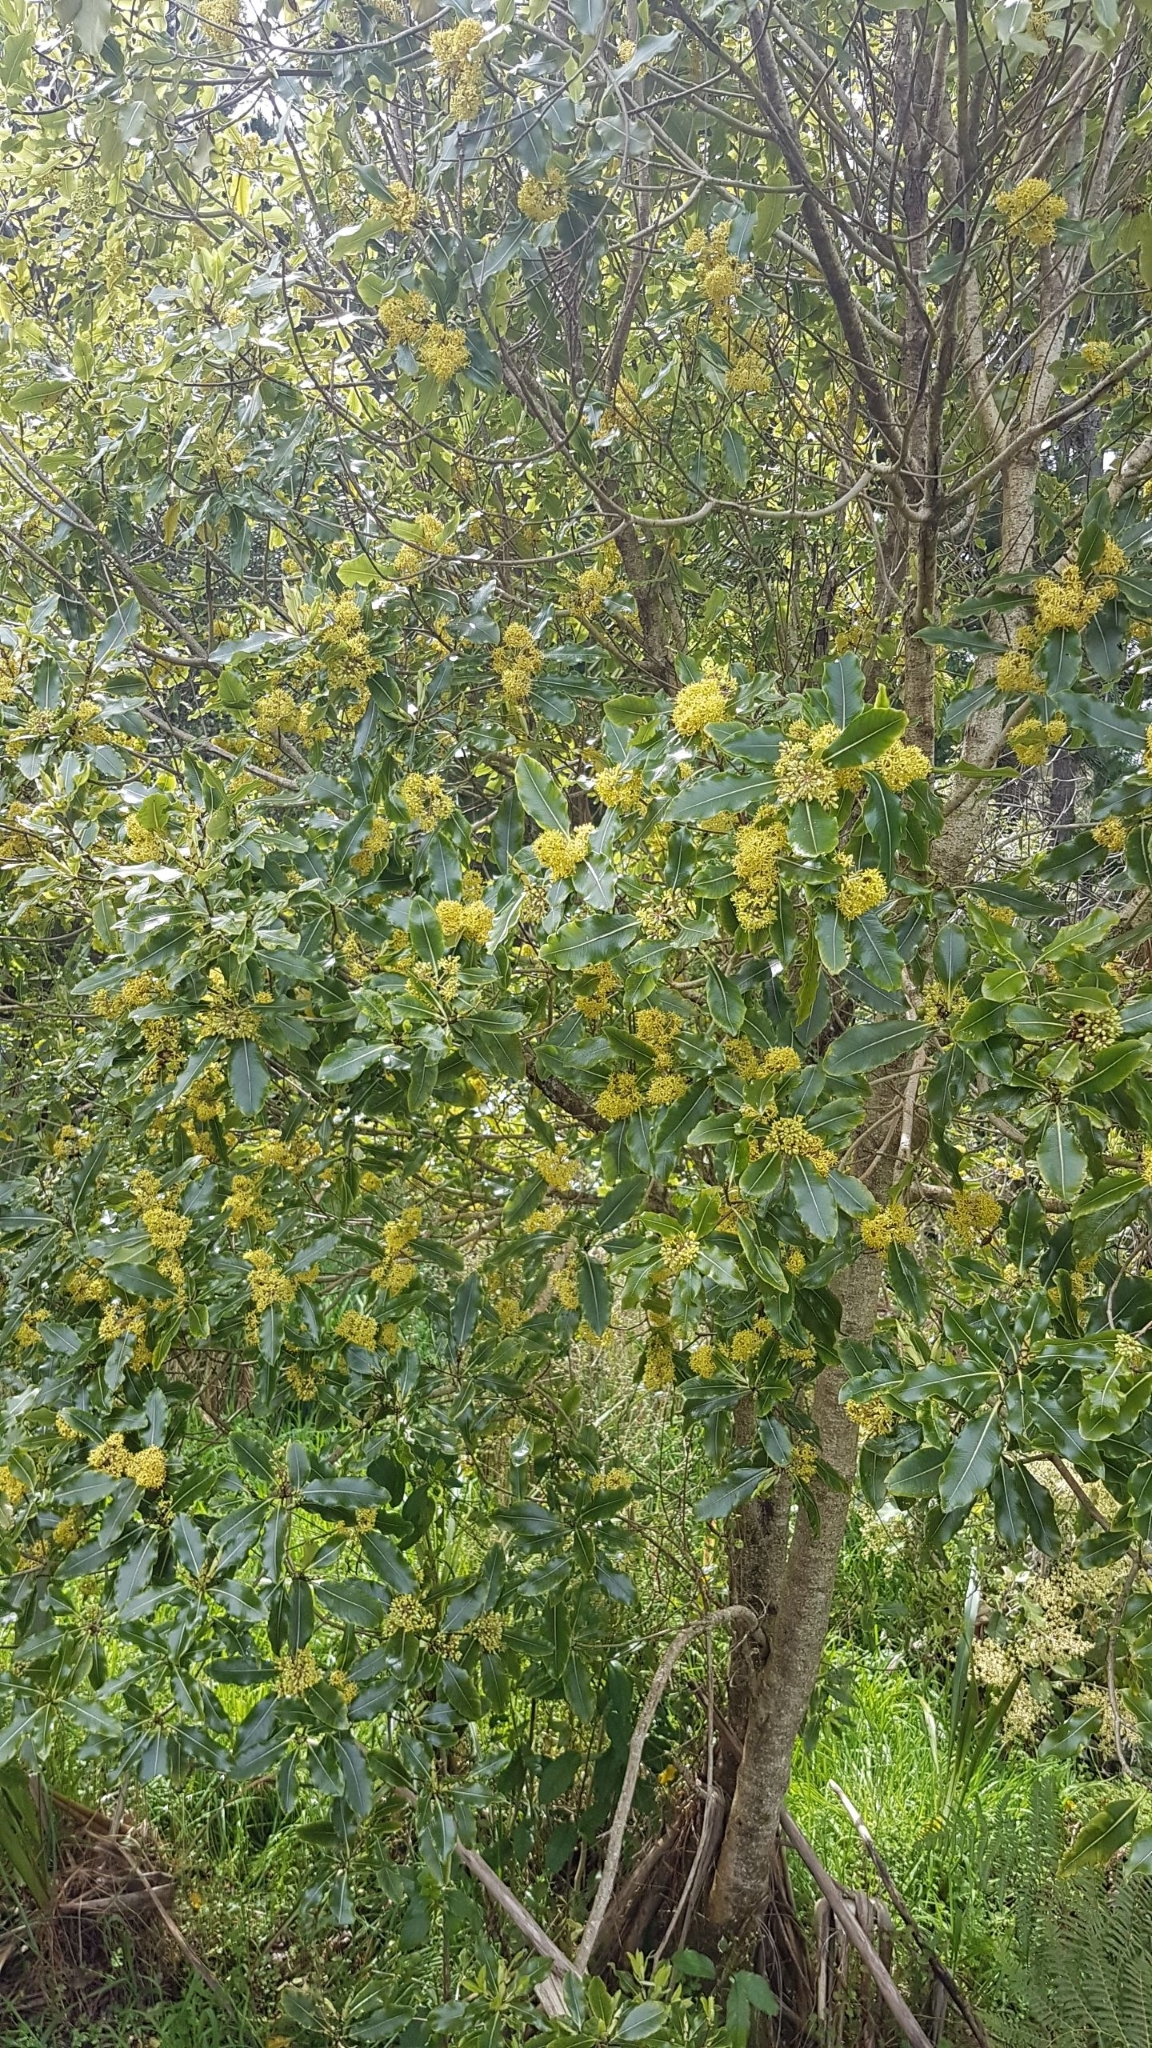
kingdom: Plantae
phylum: Tracheophyta
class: Magnoliopsida
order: Apiales
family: Pittosporaceae
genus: Pittosporum
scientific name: Pittosporum eugenioides
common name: Lemonwood
